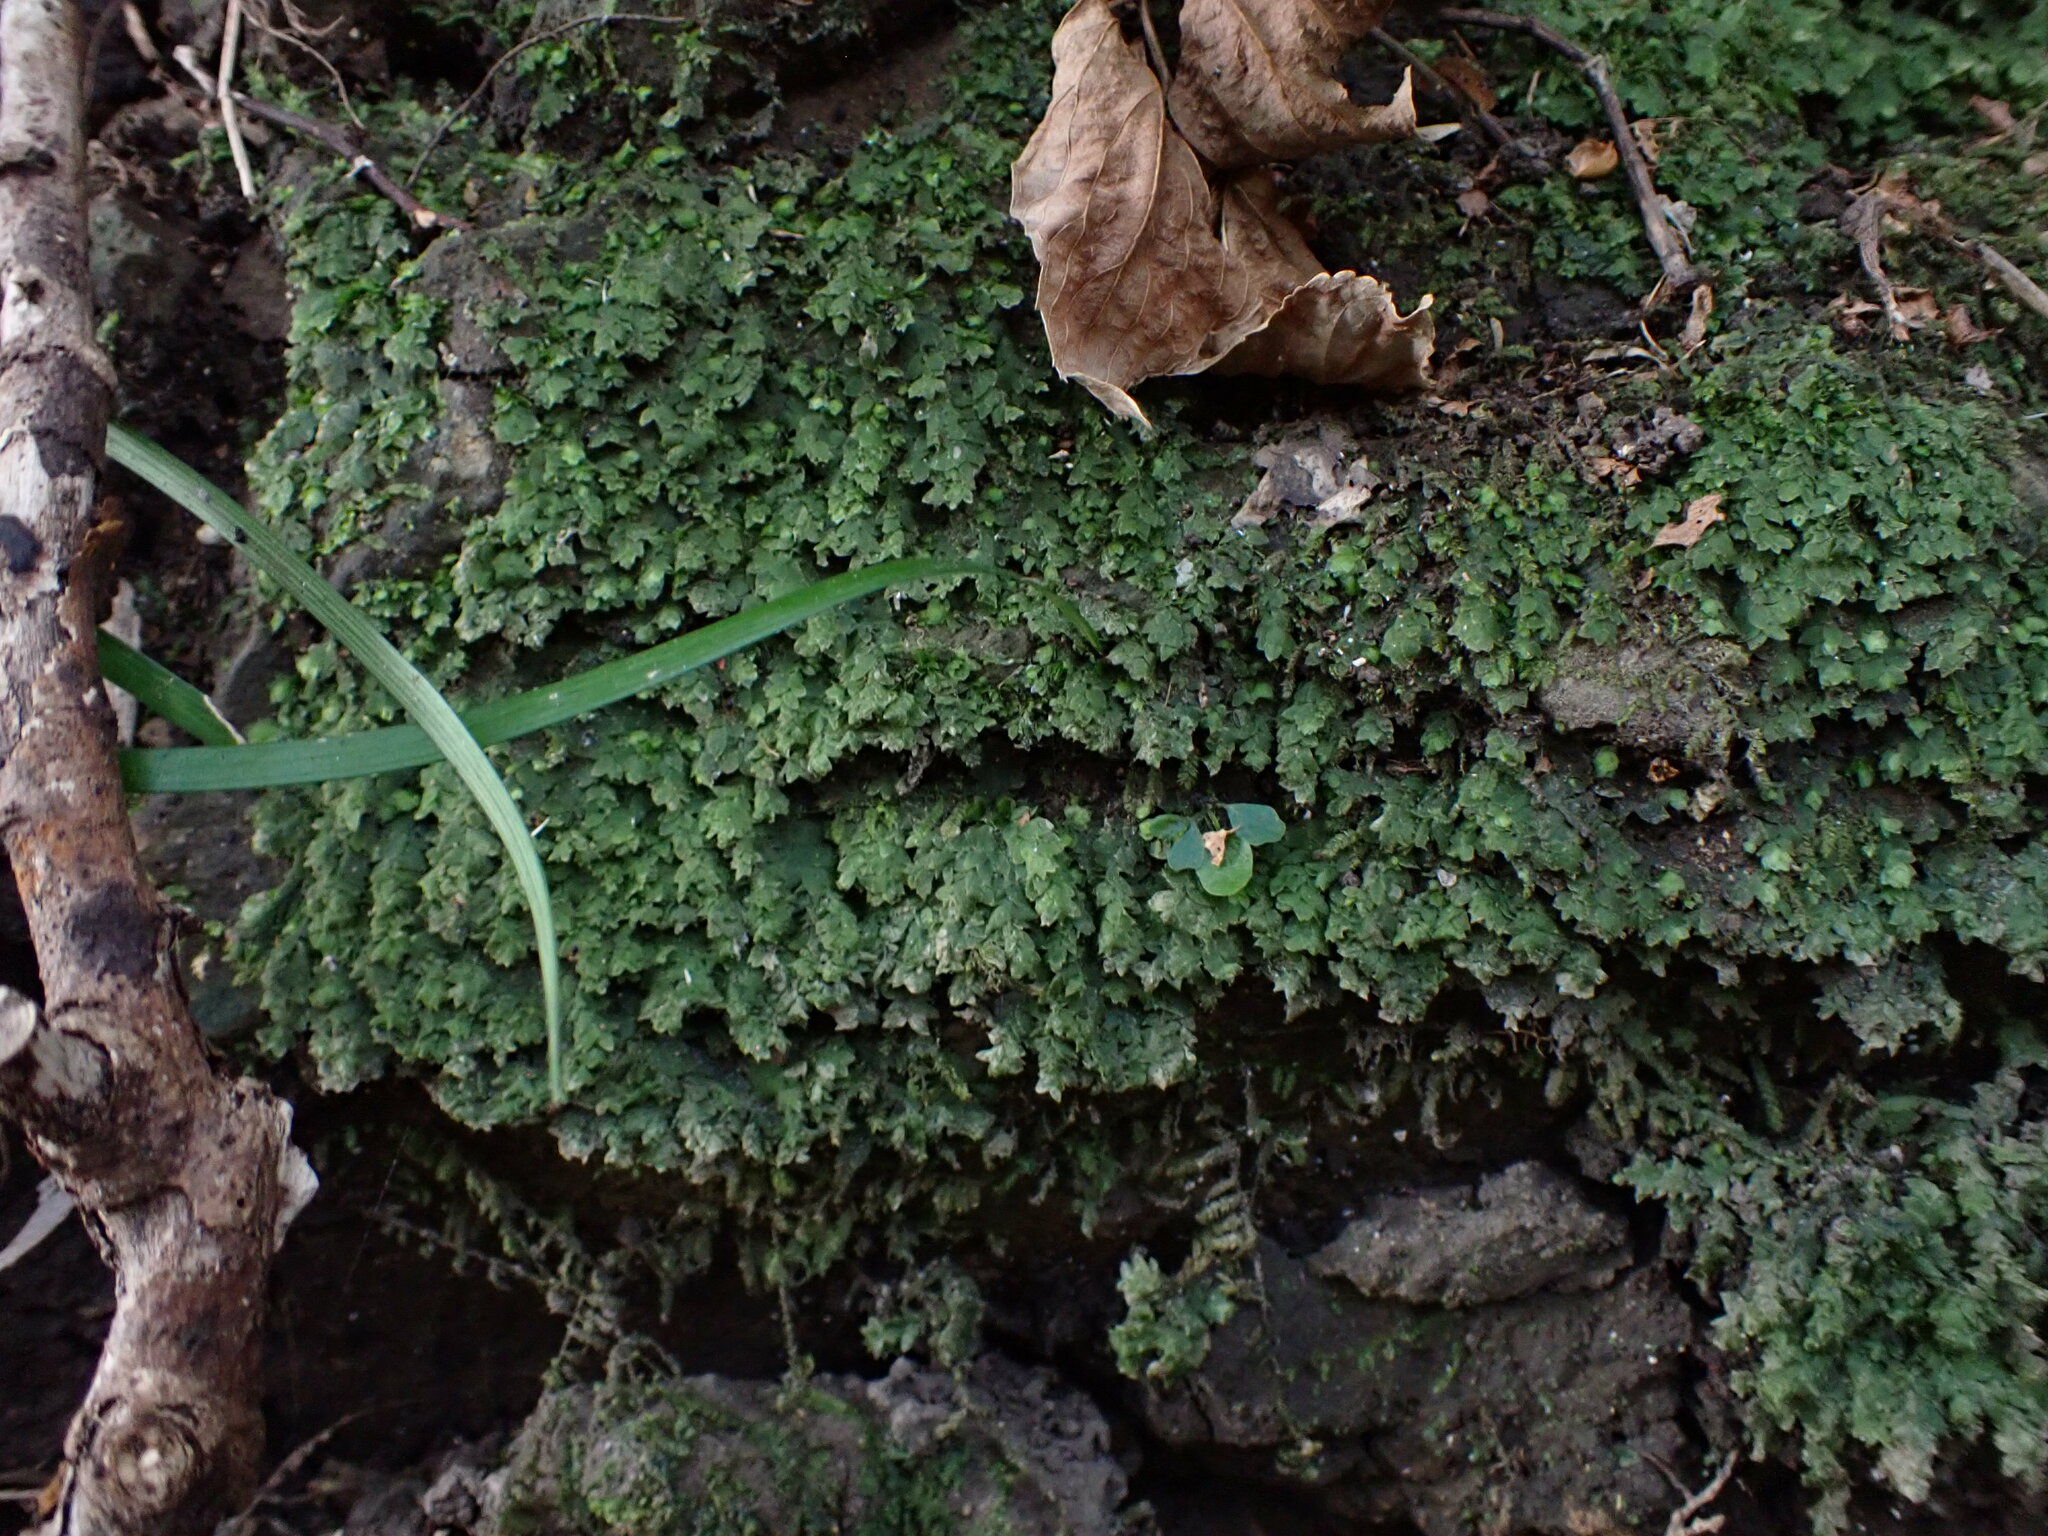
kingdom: Plantae
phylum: Bryophyta
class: Bryopsida
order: Hookeriales
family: Hookeriaceae
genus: Hookeria
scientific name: Hookeria acutifolia
